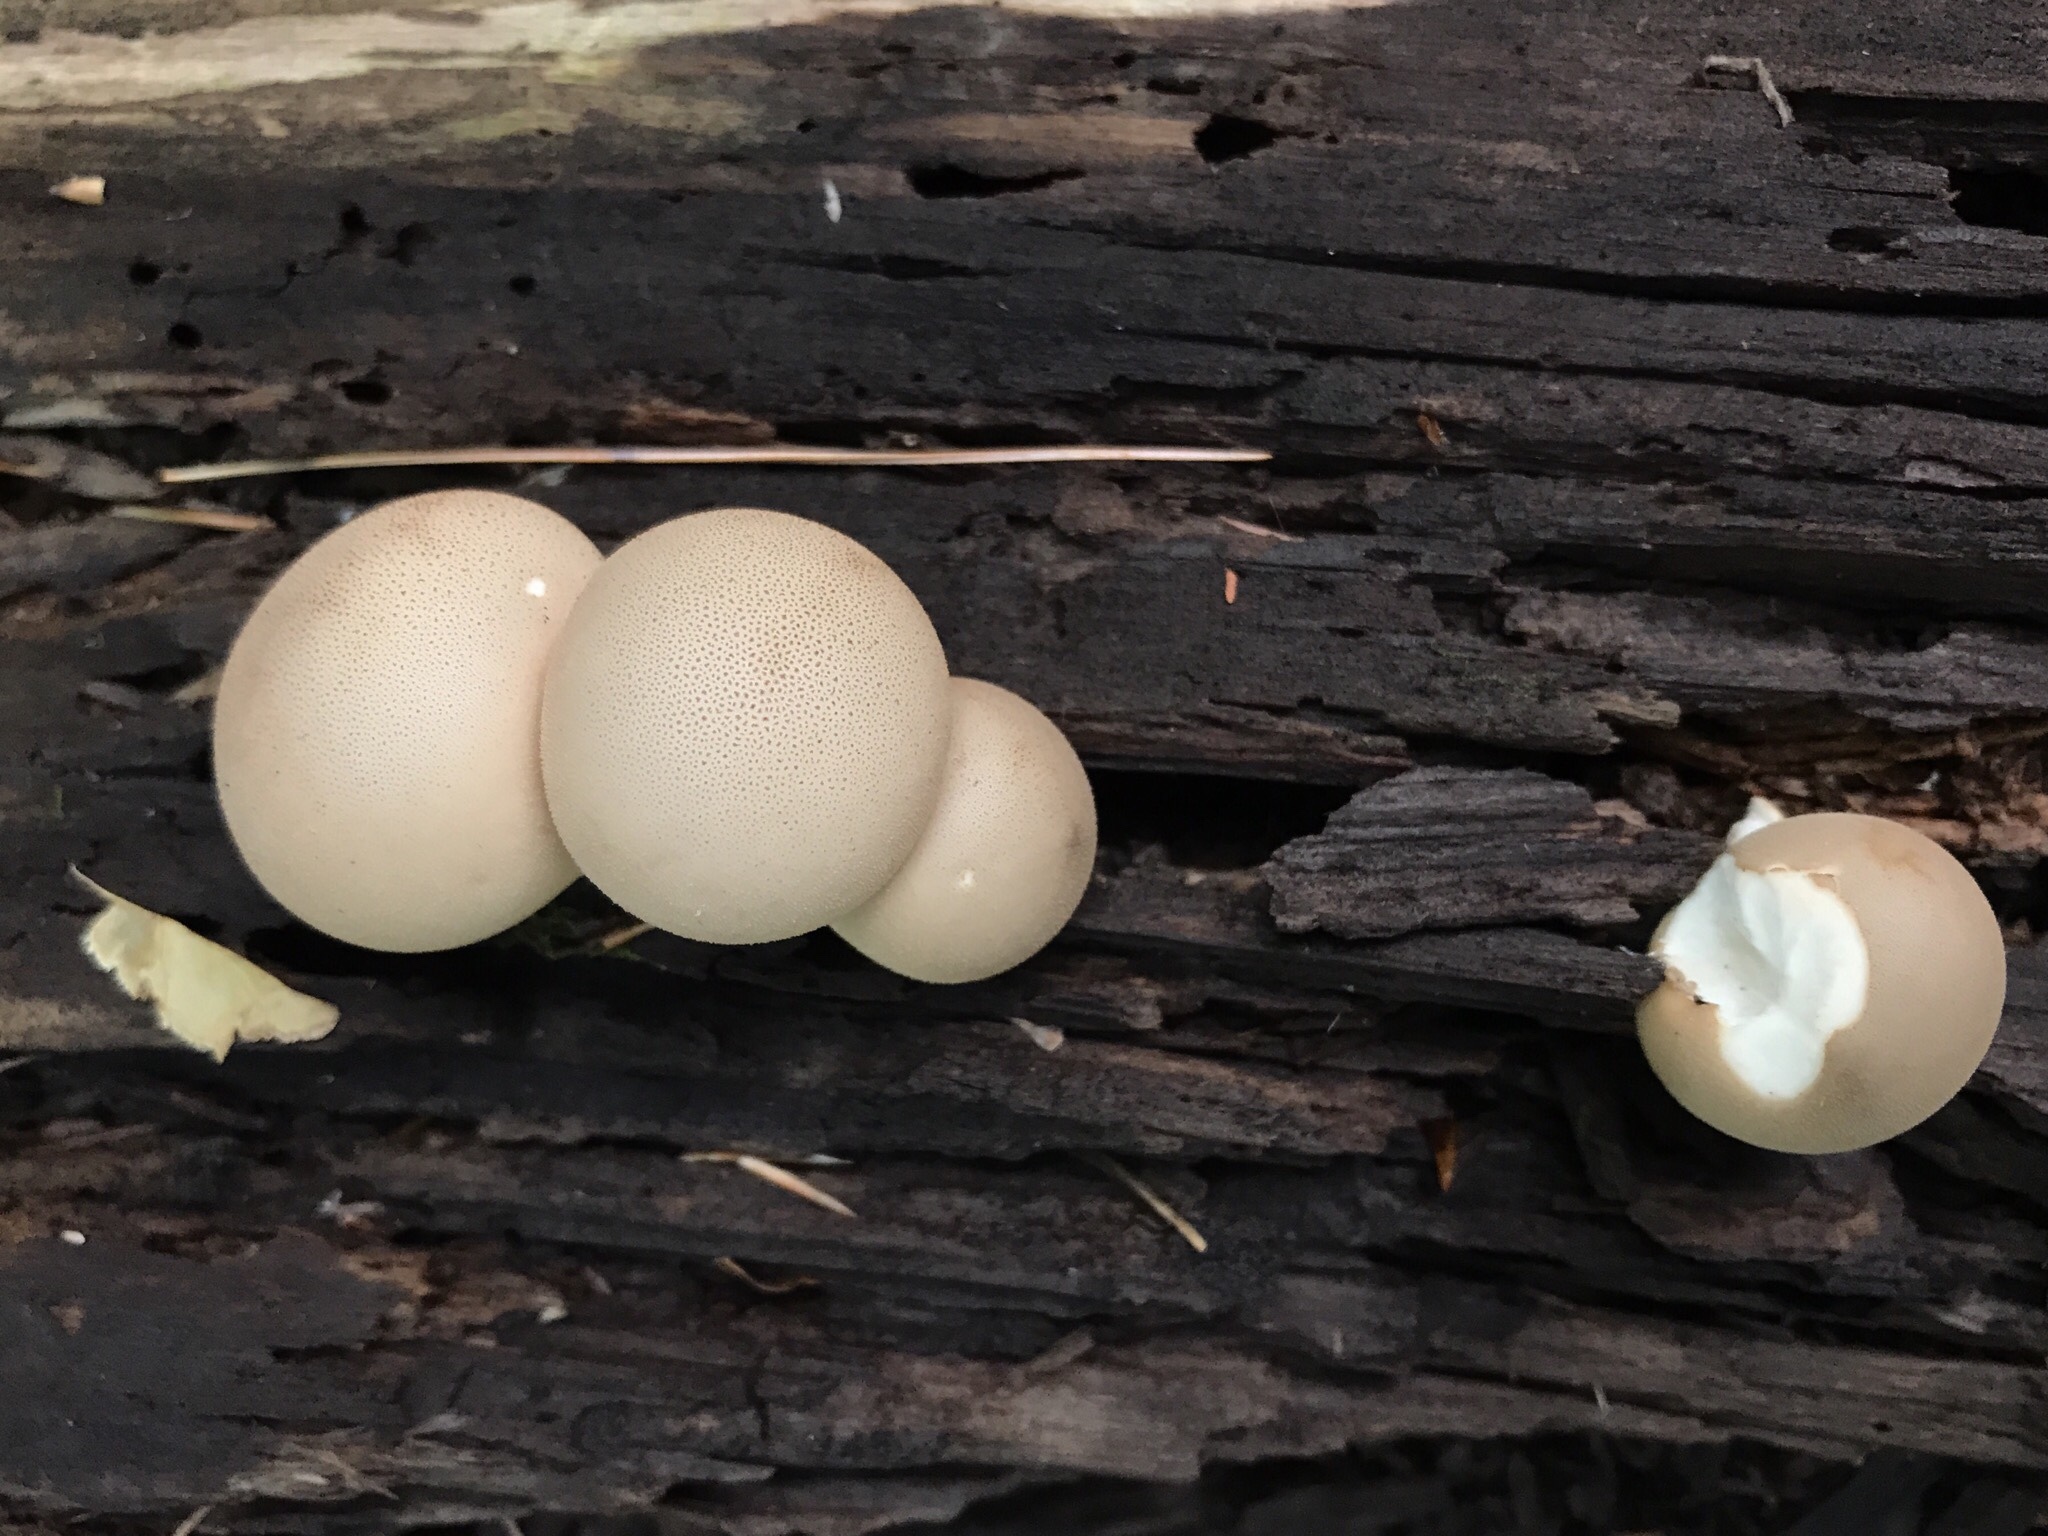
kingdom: Fungi
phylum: Basidiomycota
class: Agaricomycetes
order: Agaricales
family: Lycoperdaceae
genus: Apioperdon
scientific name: Apioperdon pyriforme
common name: Pear-shaped puffball
